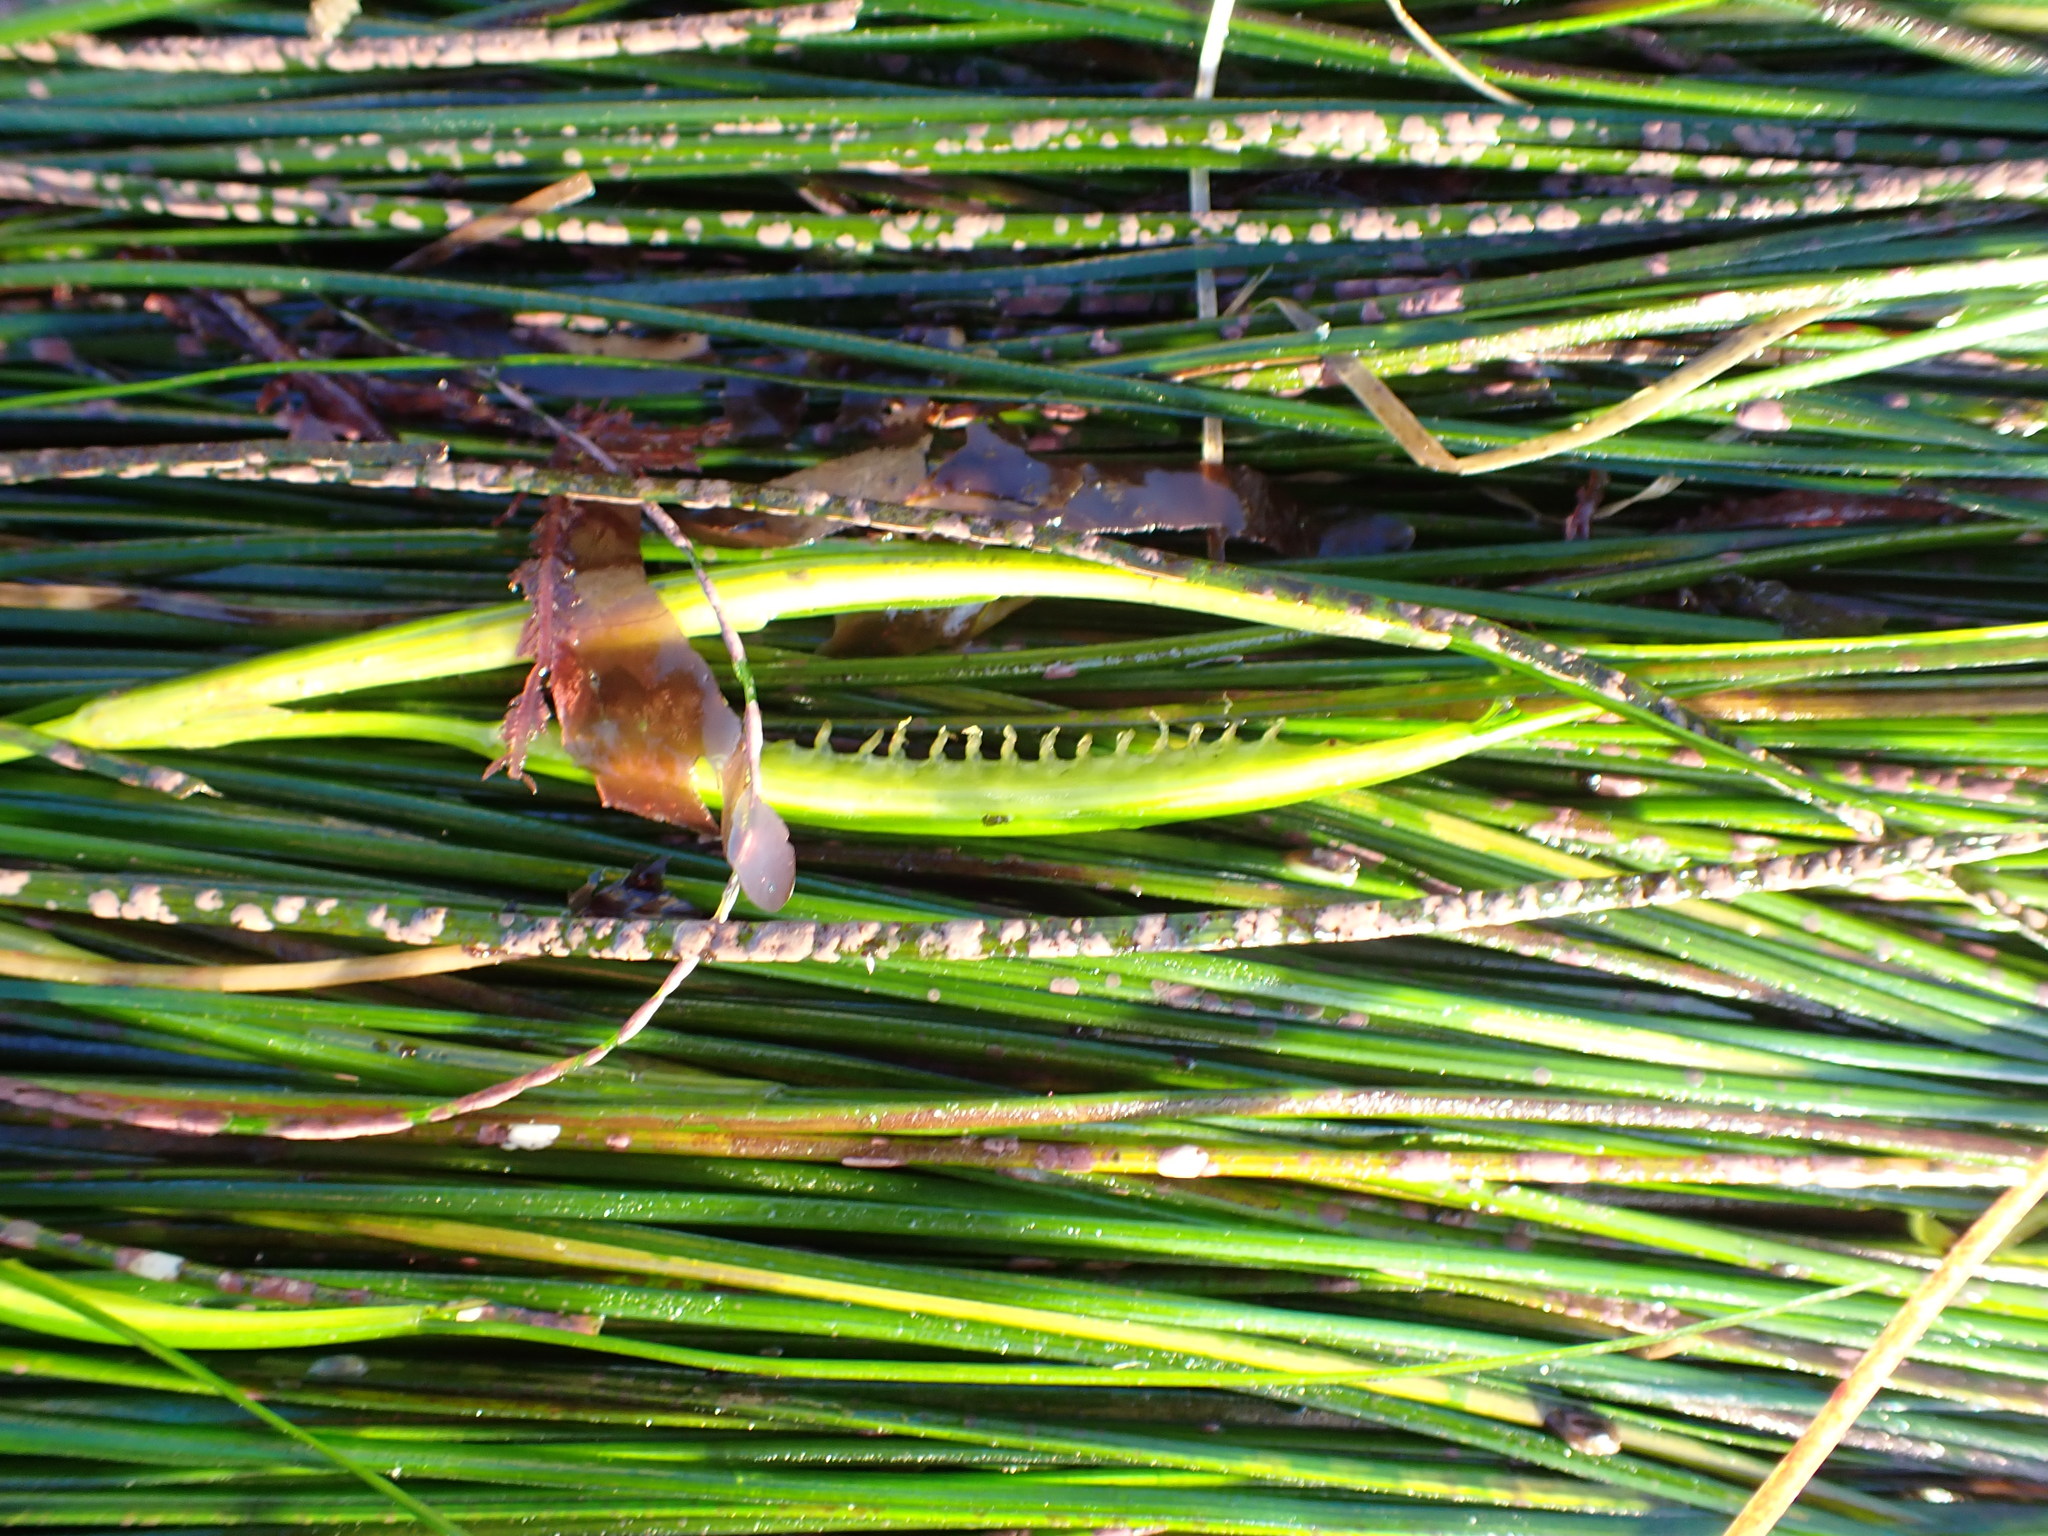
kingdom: Plantae
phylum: Tracheophyta
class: Liliopsida
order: Alismatales
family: Zosteraceae
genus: Phyllospadix
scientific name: Phyllospadix torreyi
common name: Surfgrass
